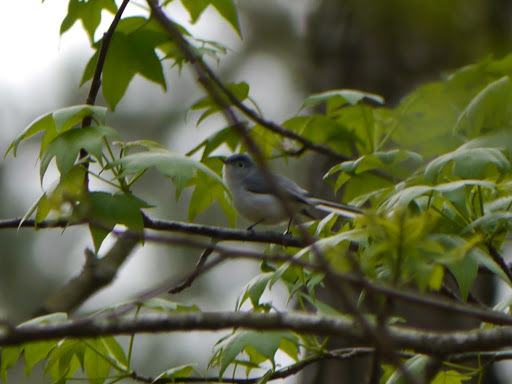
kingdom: Animalia
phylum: Chordata
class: Aves
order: Passeriformes
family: Polioptilidae
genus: Polioptila
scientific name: Polioptila caerulea
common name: Blue-gray gnatcatcher
